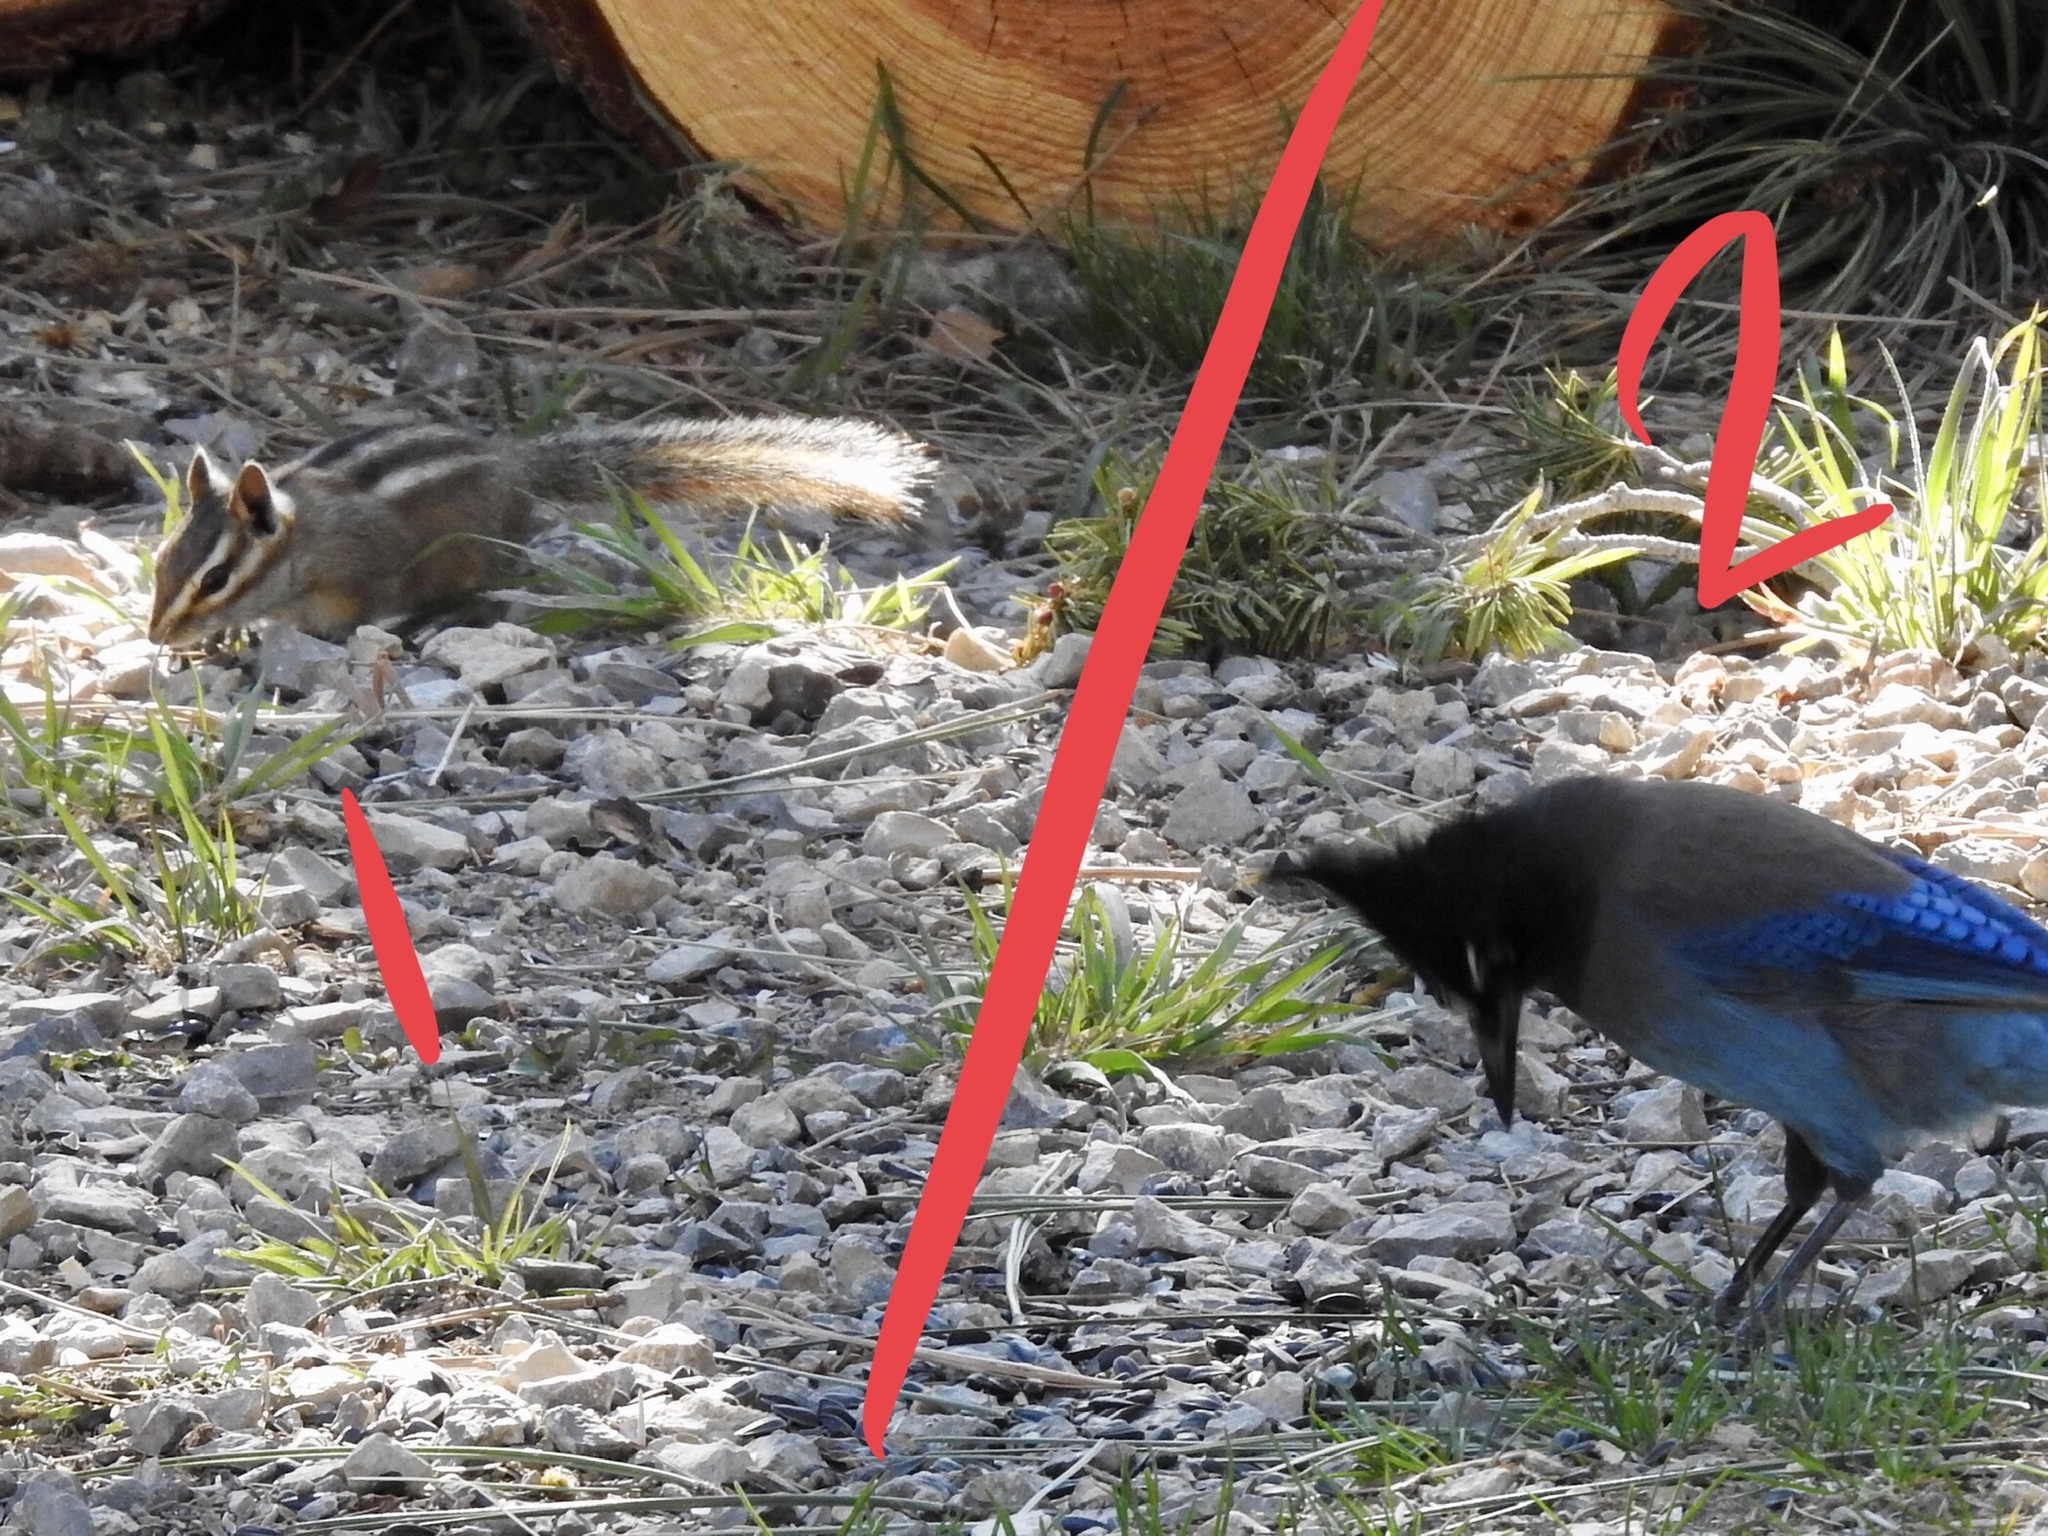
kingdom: Animalia
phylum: Chordata
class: Aves
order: Passeriformes
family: Corvidae
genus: Cyanocitta
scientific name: Cyanocitta stelleri
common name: Steller's jay
